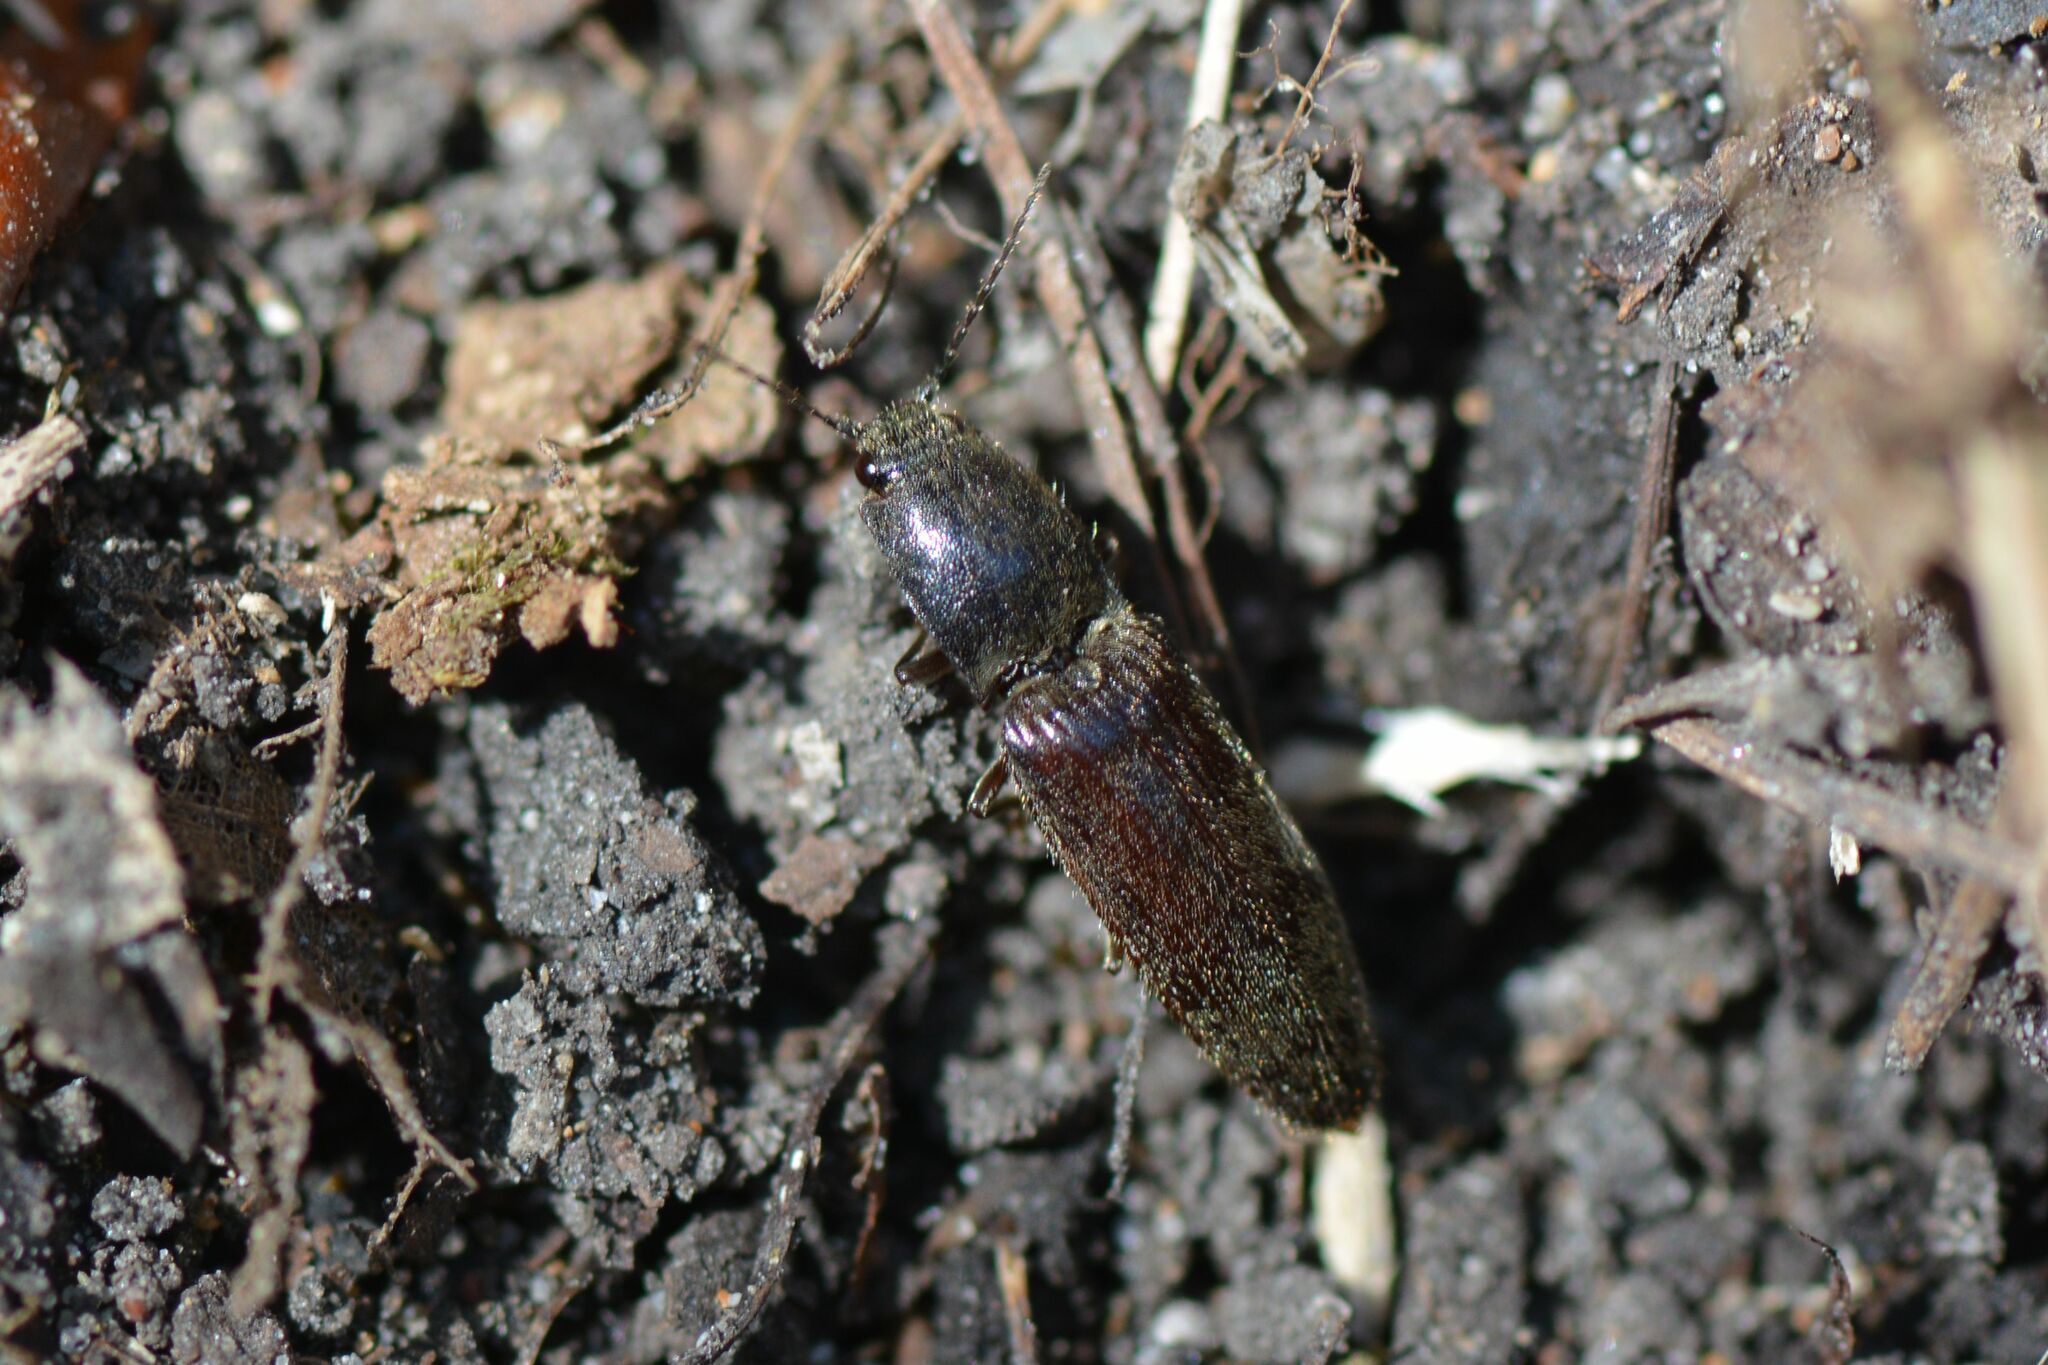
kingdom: Animalia
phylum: Arthropoda
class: Insecta
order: Coleoptera
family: Elateridae
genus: Athous
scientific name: Athous haemorrhoidalis
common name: Red-brown click beetle
